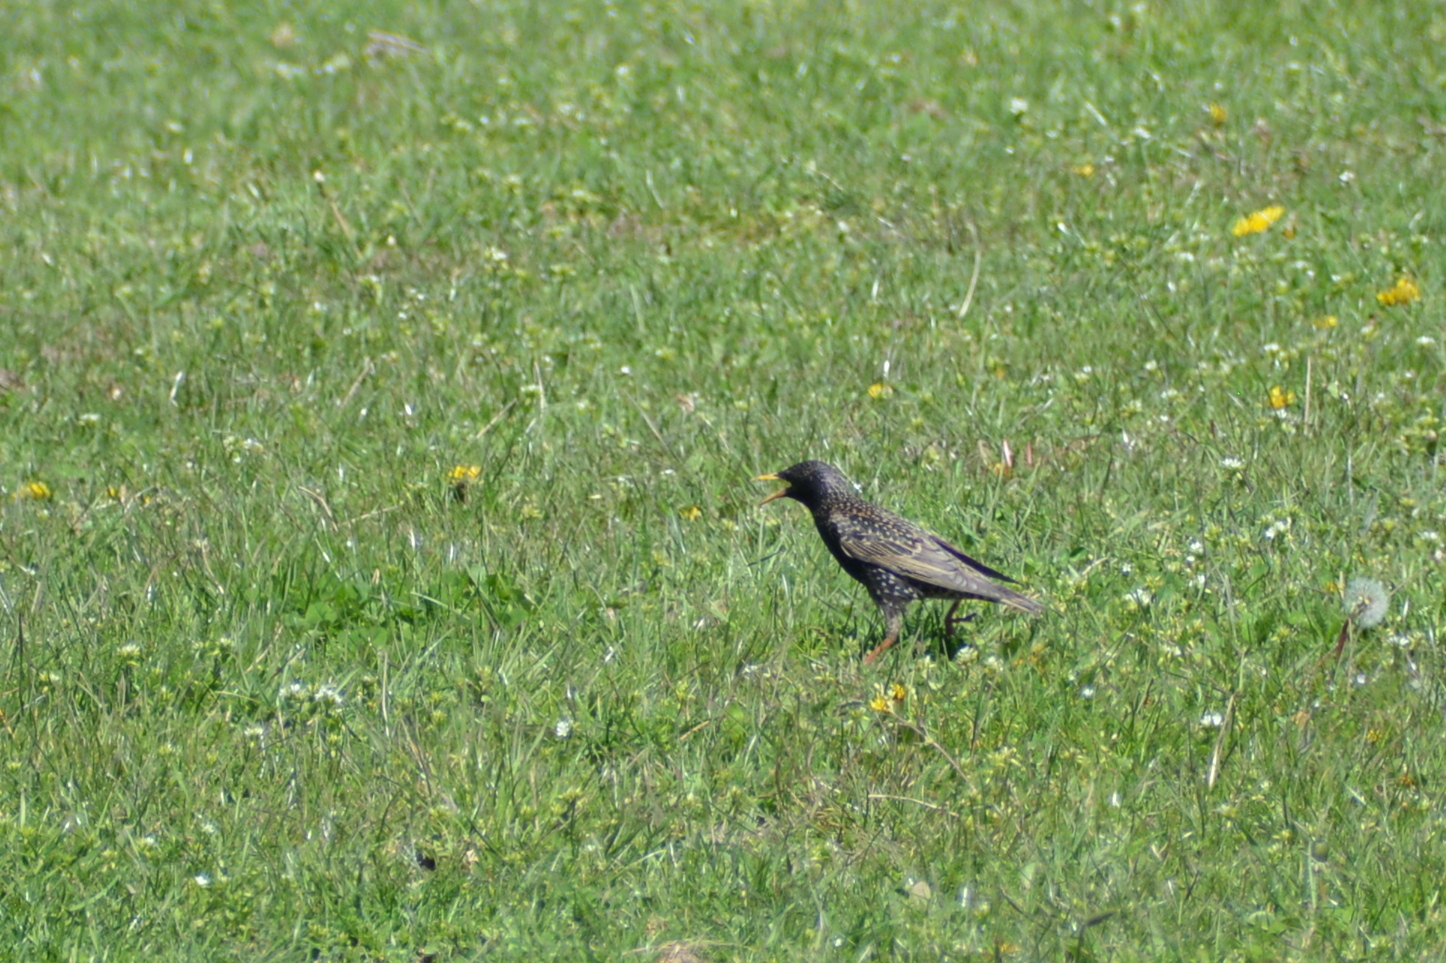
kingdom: Animalia
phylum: Chordata
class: Aves
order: Passeriformes
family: Sturnidae
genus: Sturnus
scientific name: Sturnus vulgaris
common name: Common starling
